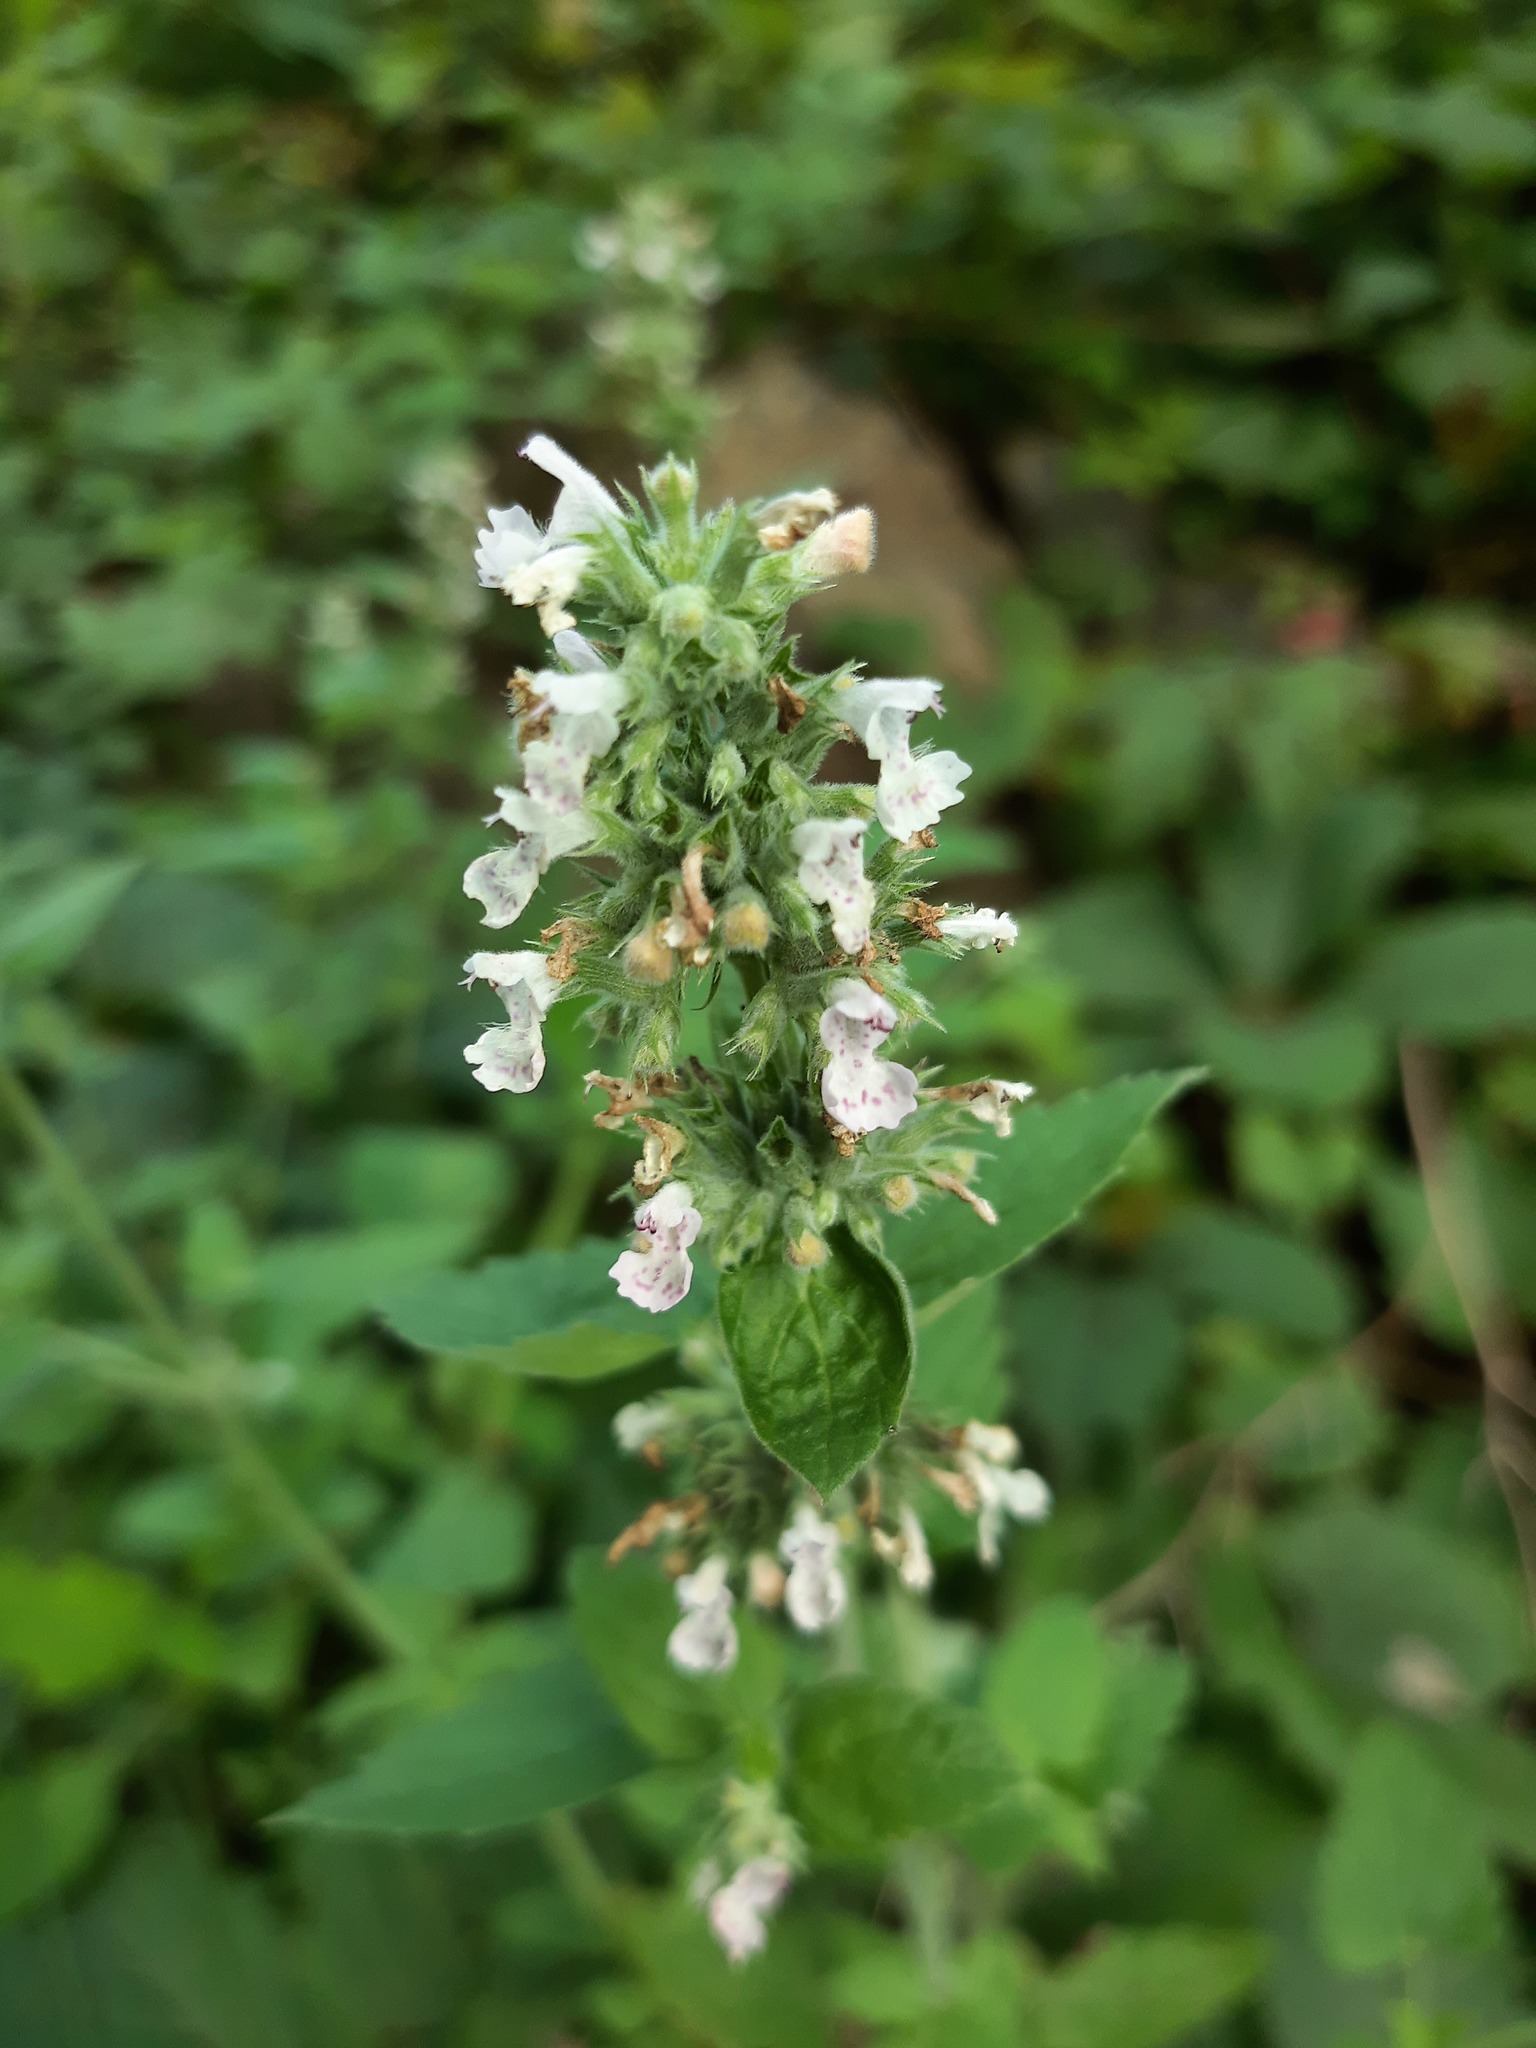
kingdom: Plantae
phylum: Tracheophyta
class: Magnoliopsida
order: Lamiales
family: Lamiaceae
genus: Nepeta
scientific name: Nepeta cataria
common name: Catnip
